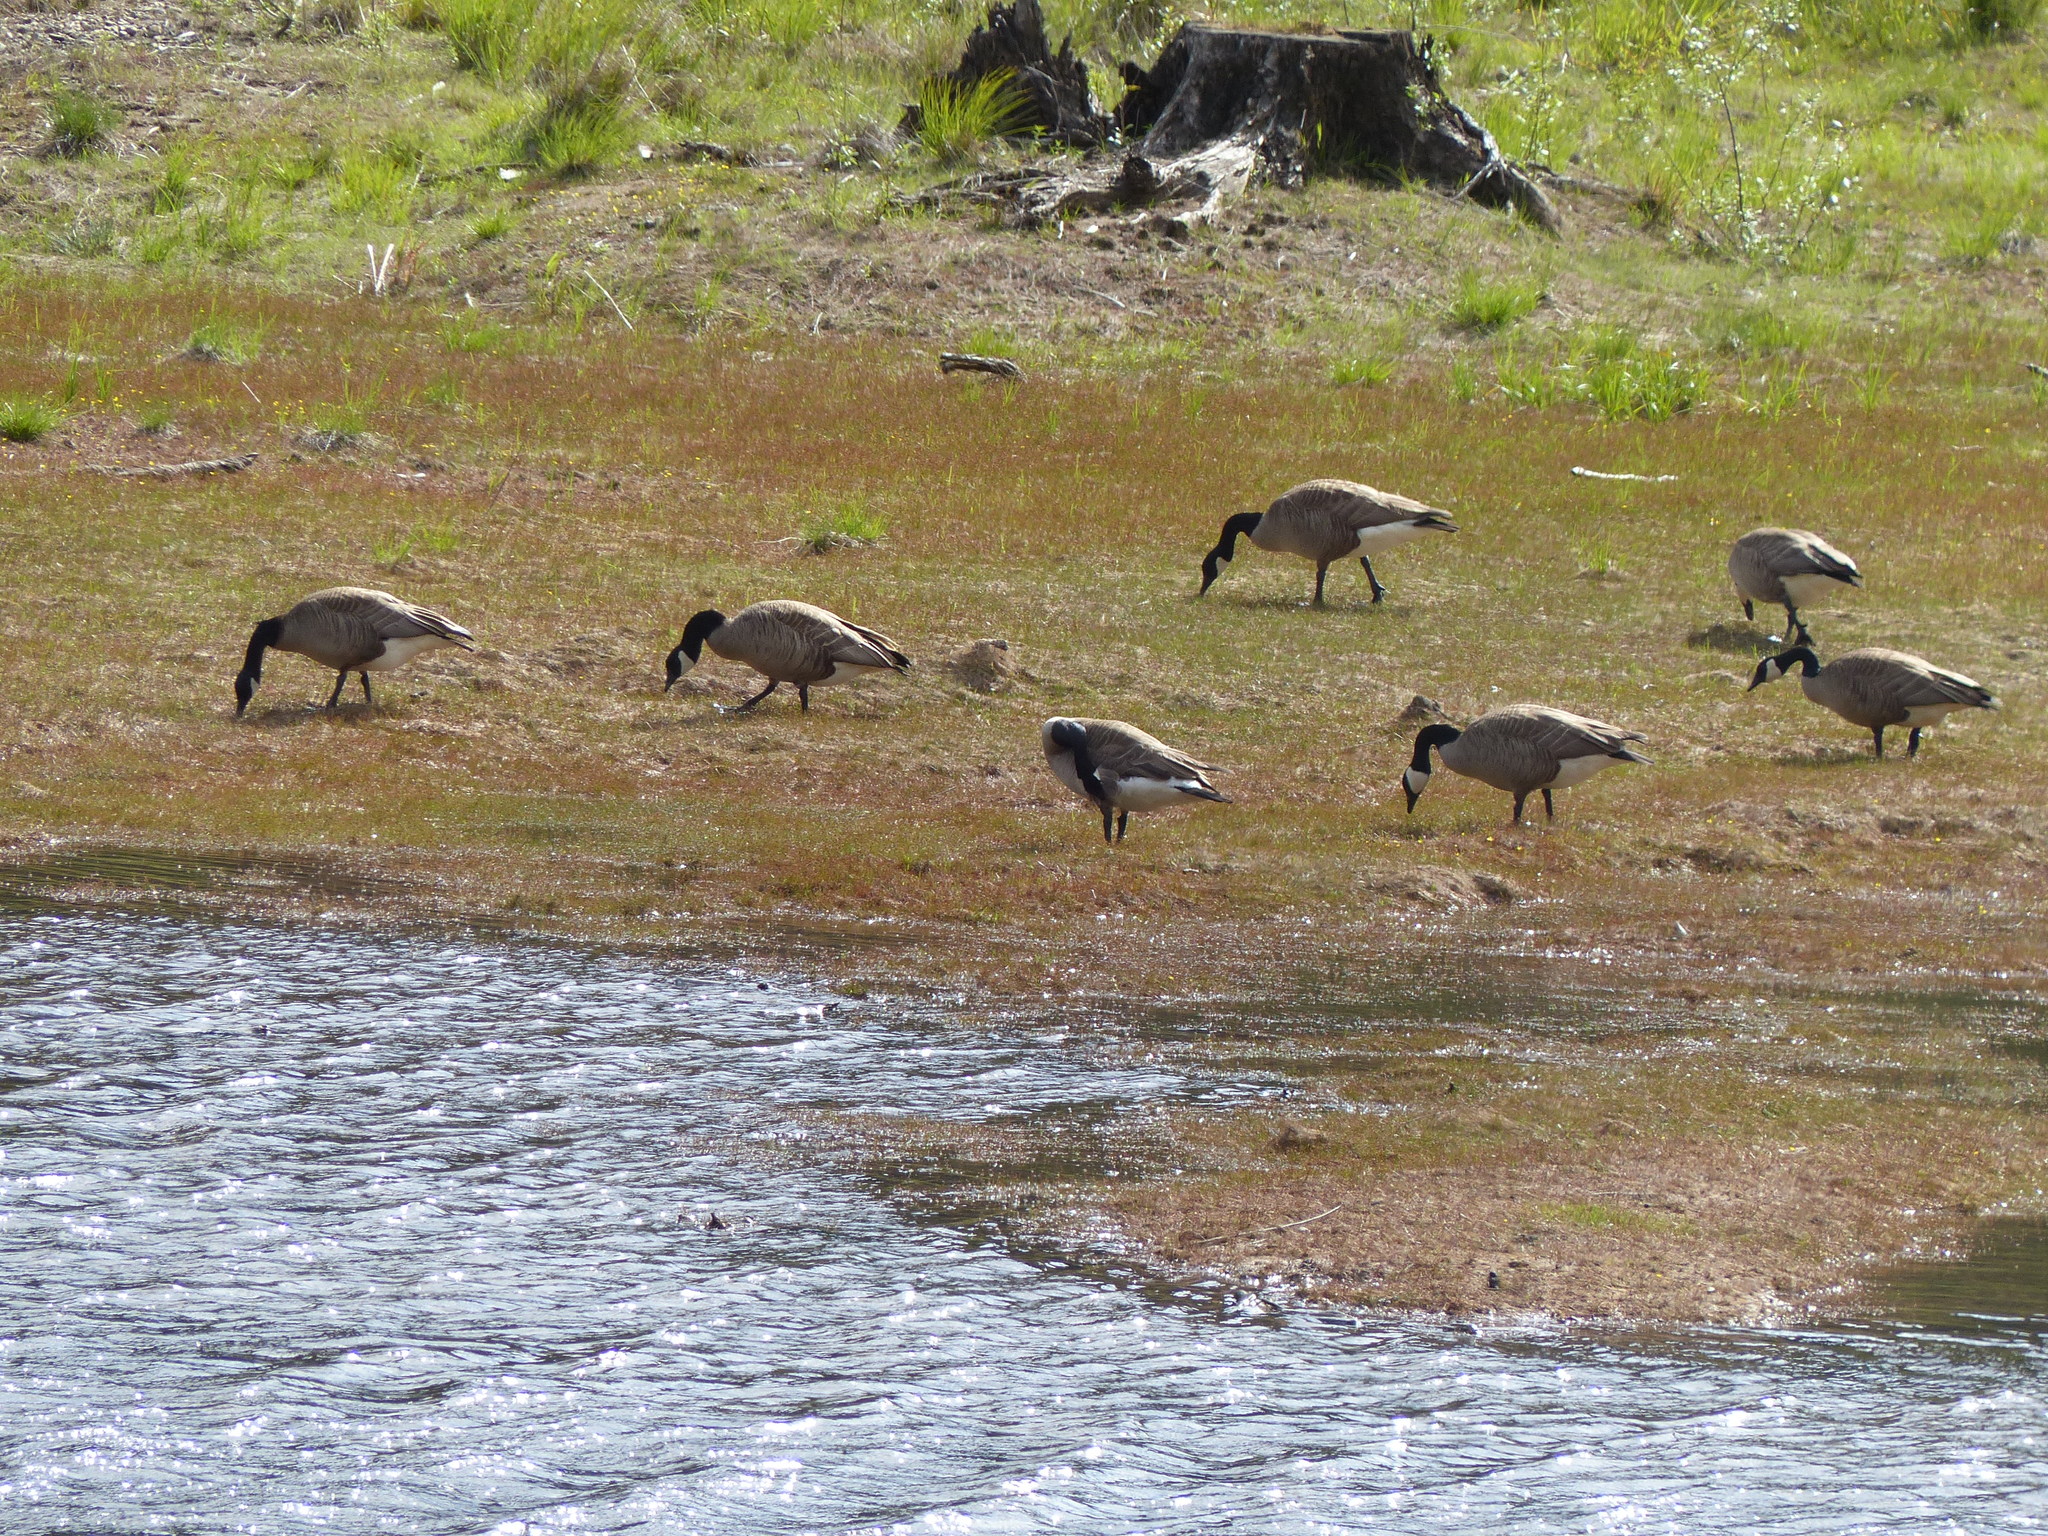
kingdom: Animalia
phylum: Chordata
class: Aves
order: Anseriformes
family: Anatidae
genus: Branta
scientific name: Branta canadensis
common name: Canada goose
